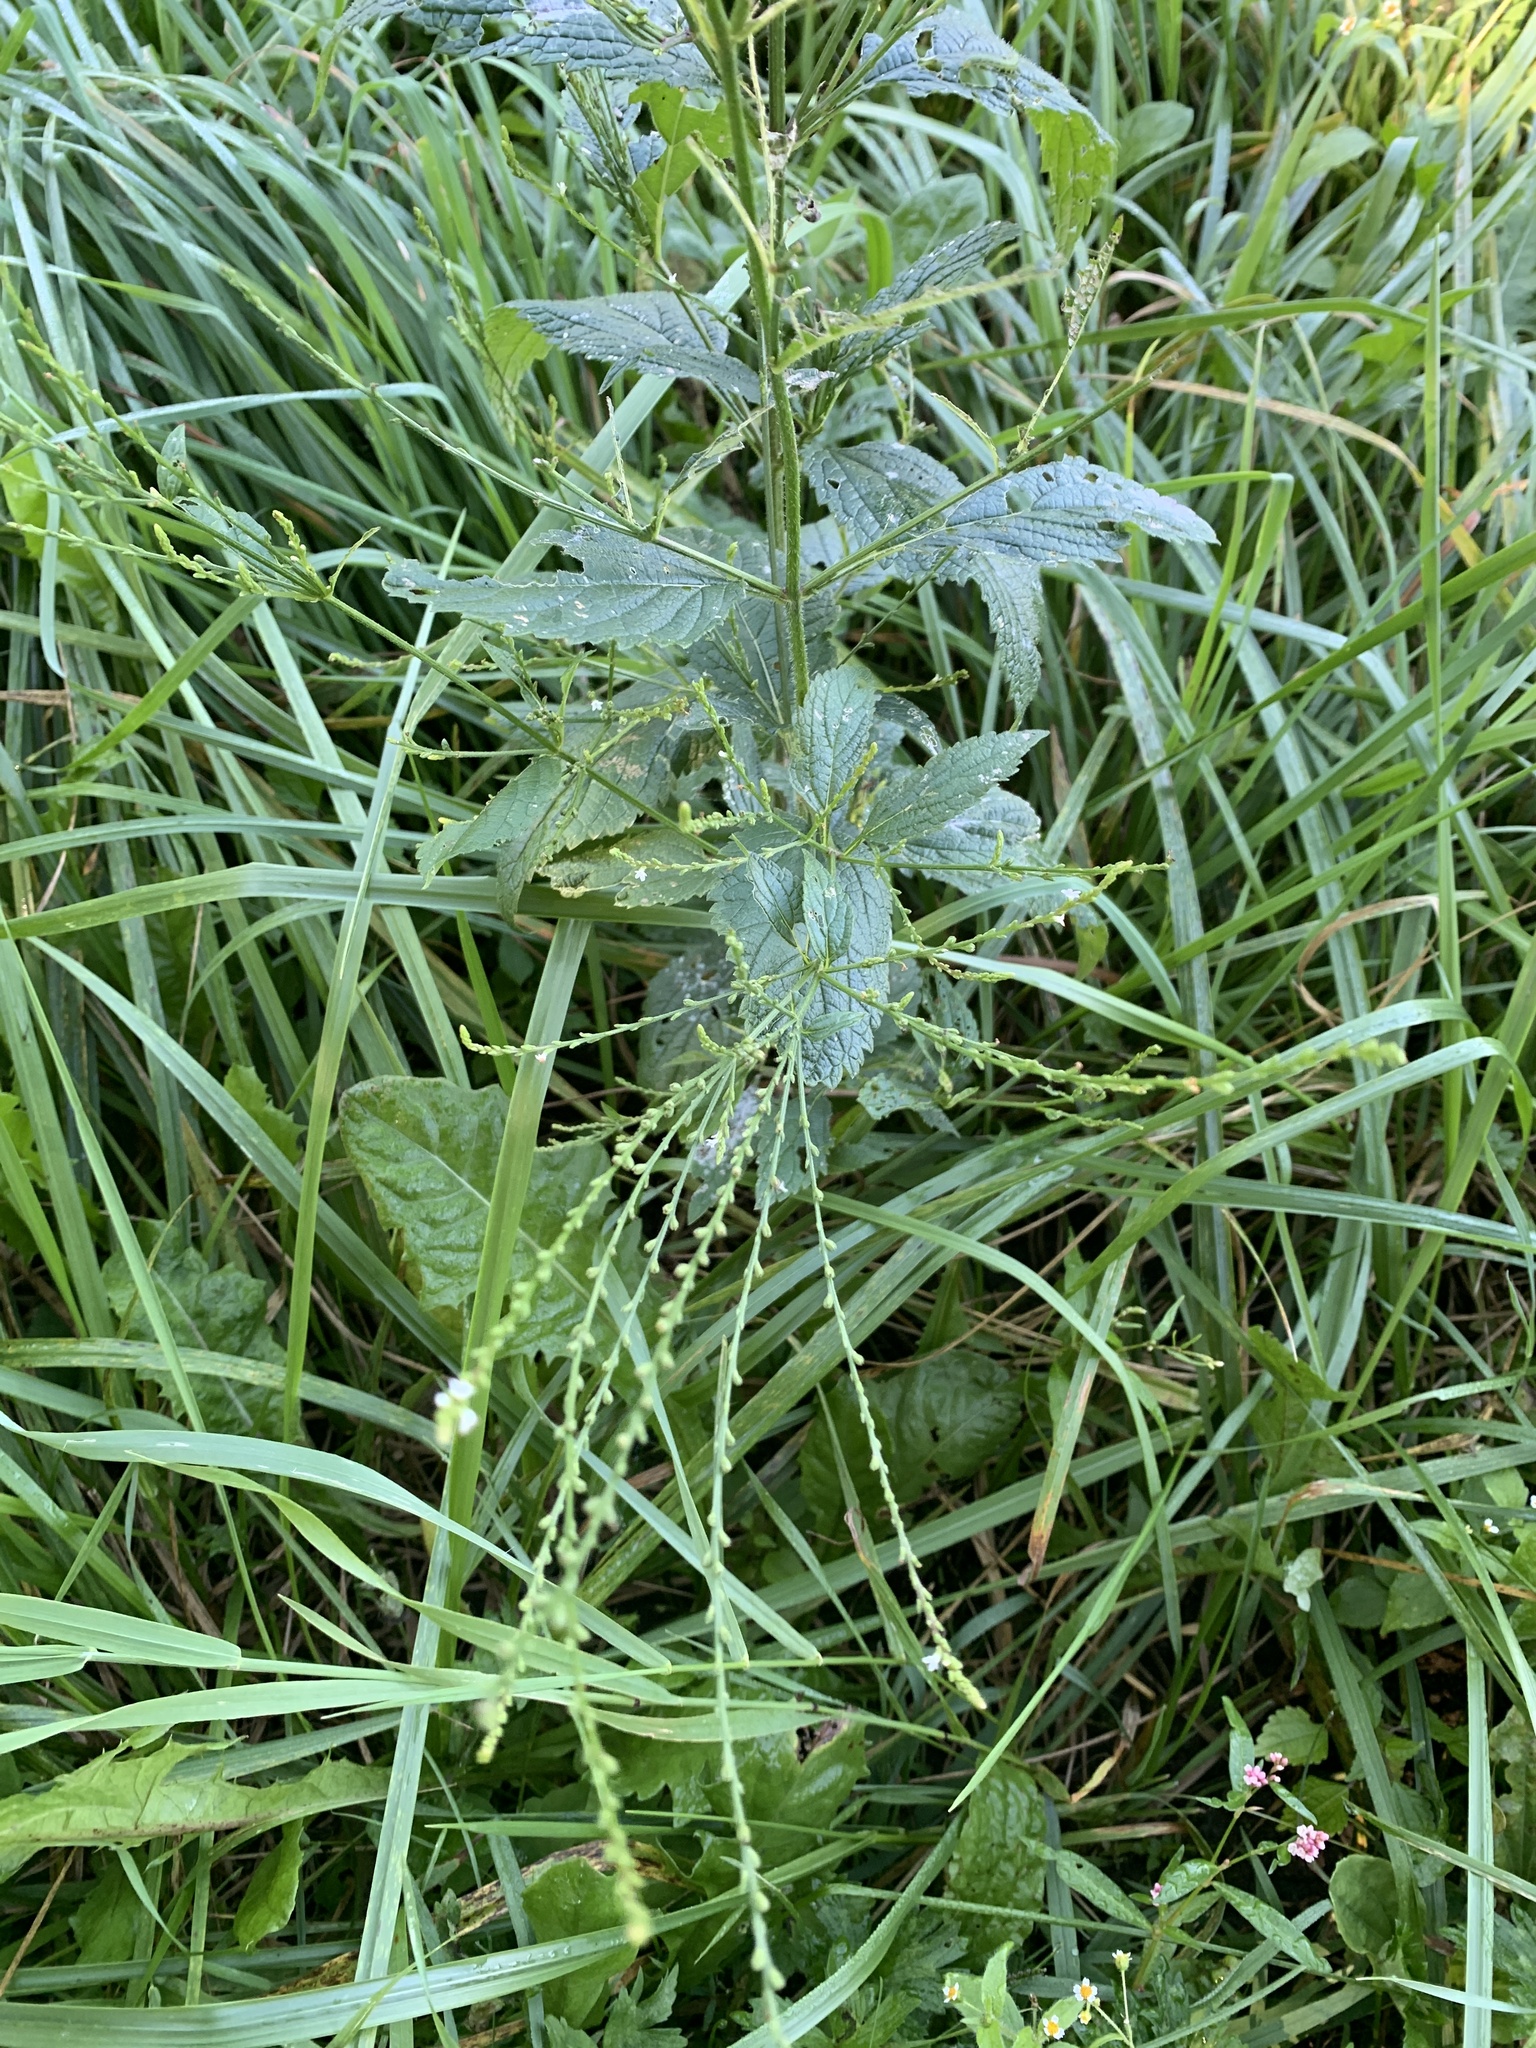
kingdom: Plantae
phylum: Tracheophyta
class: Magnoliopsida
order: Lamiales
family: Verbenaceae
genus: Verbena
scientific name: Verbena urticifolia
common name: Nettle-leaved vervain
